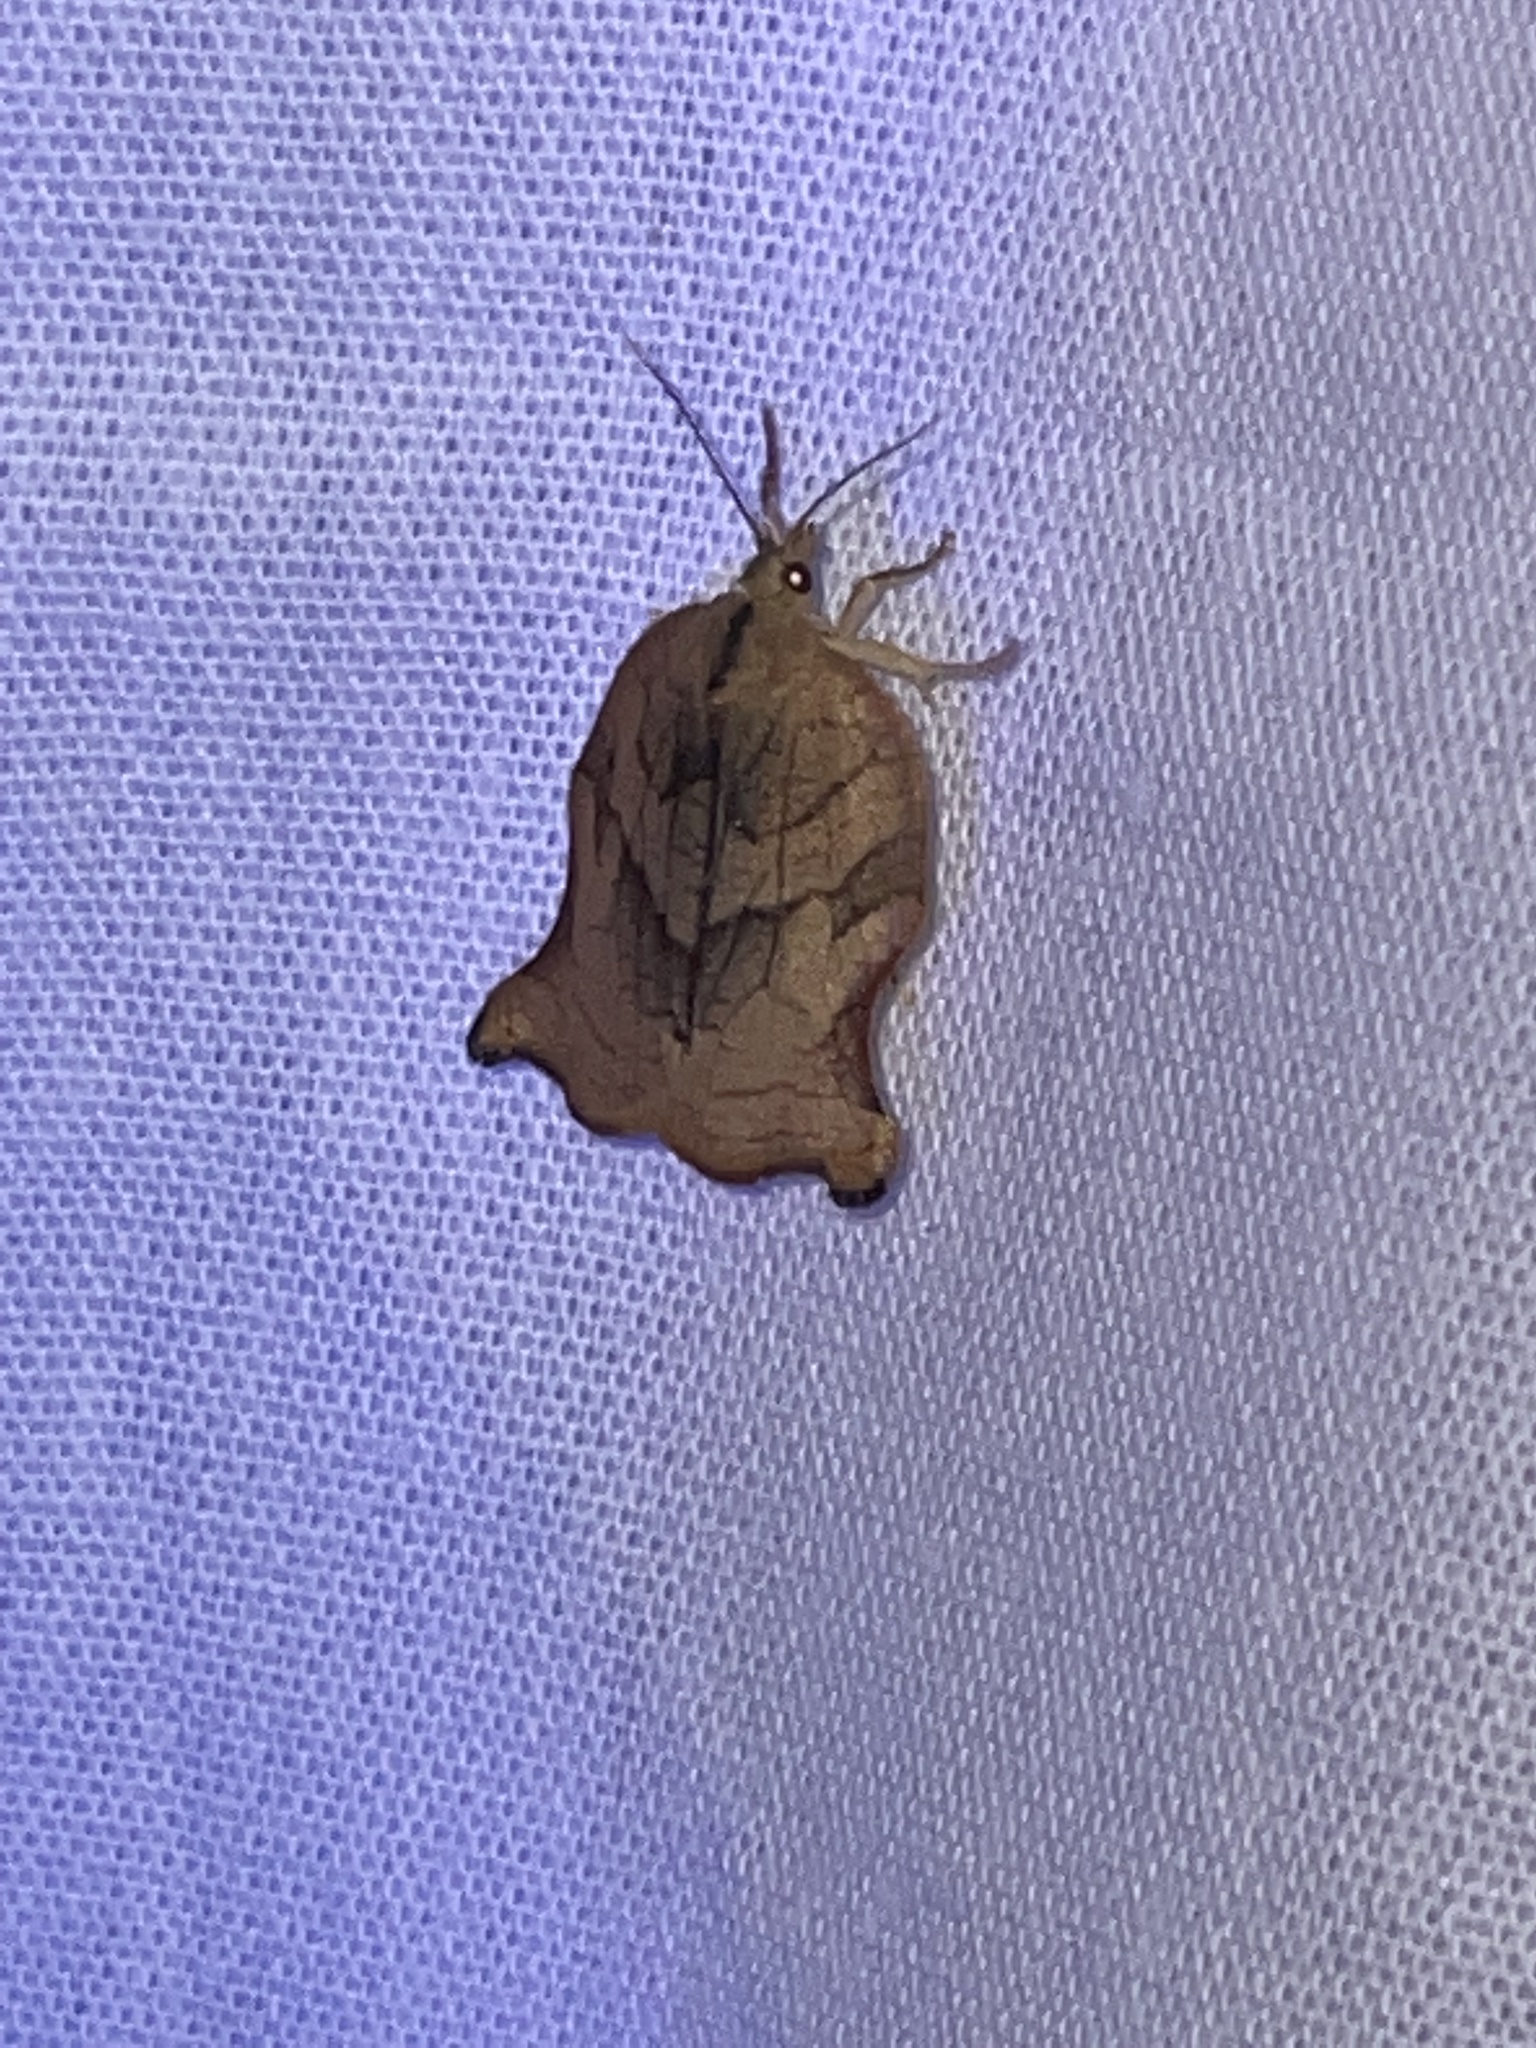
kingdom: Animalia
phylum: Arthropoda
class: Insecta
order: Lepidoptera
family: Tortricidae
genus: Archips
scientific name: Archips purpurana
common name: Omnivorous leafroller
